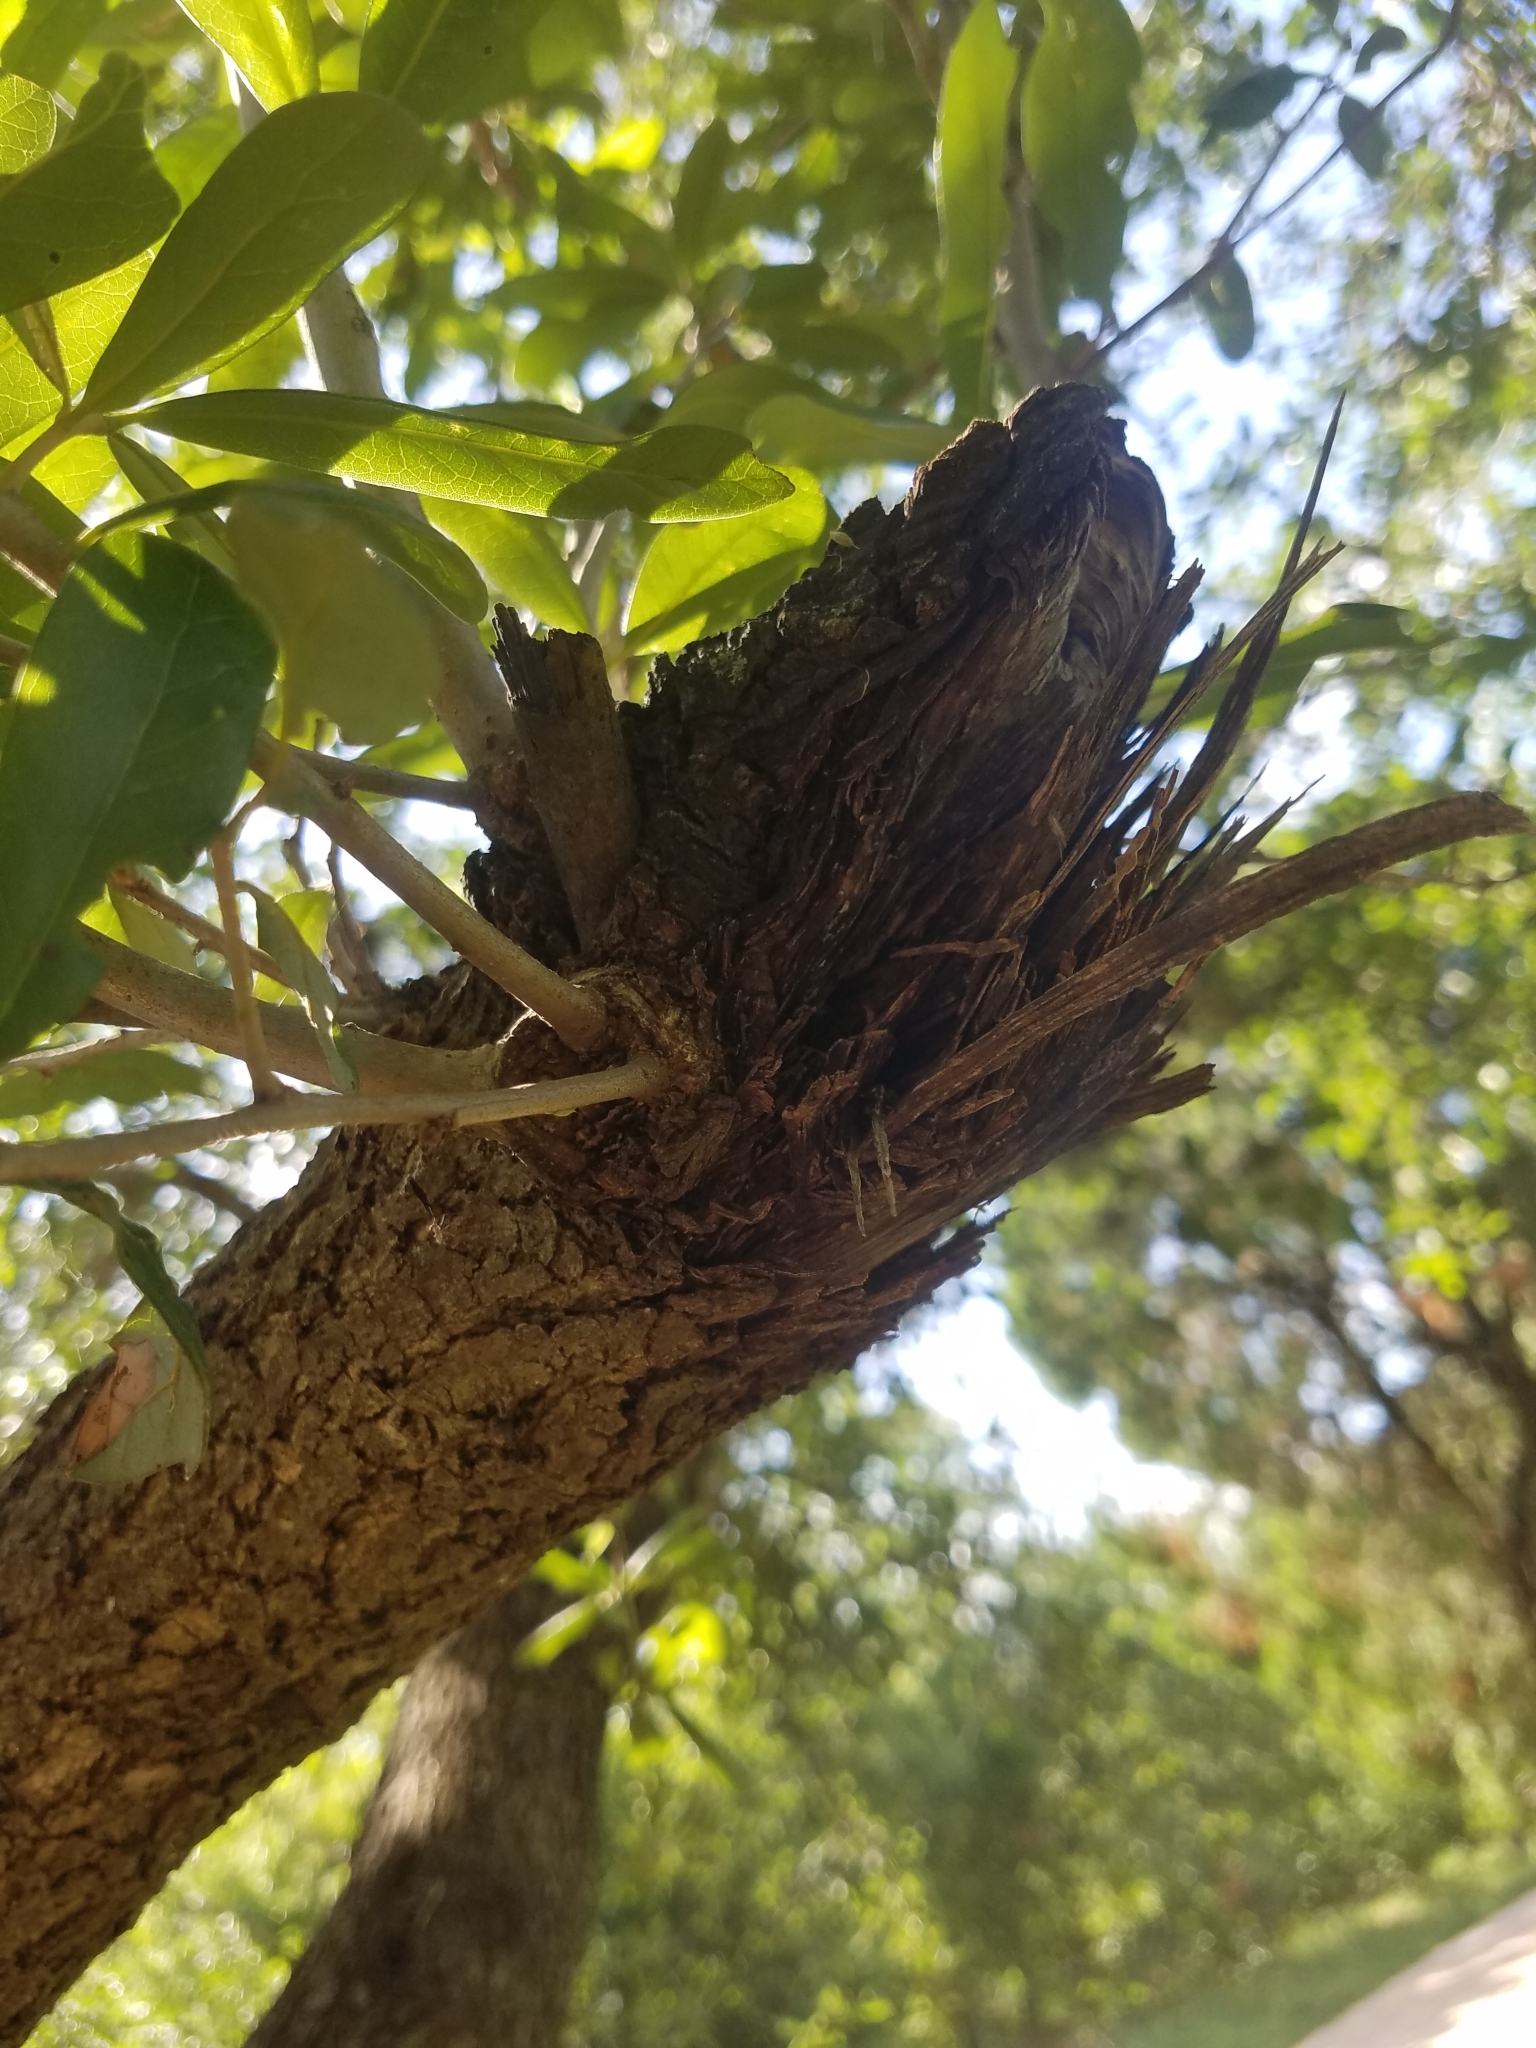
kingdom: Plantae
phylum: Tracheophyta
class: Magnoliopsida
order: Fagales
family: Fagaceae
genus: Quercus
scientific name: Quercus virginiana
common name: Southern live oak
